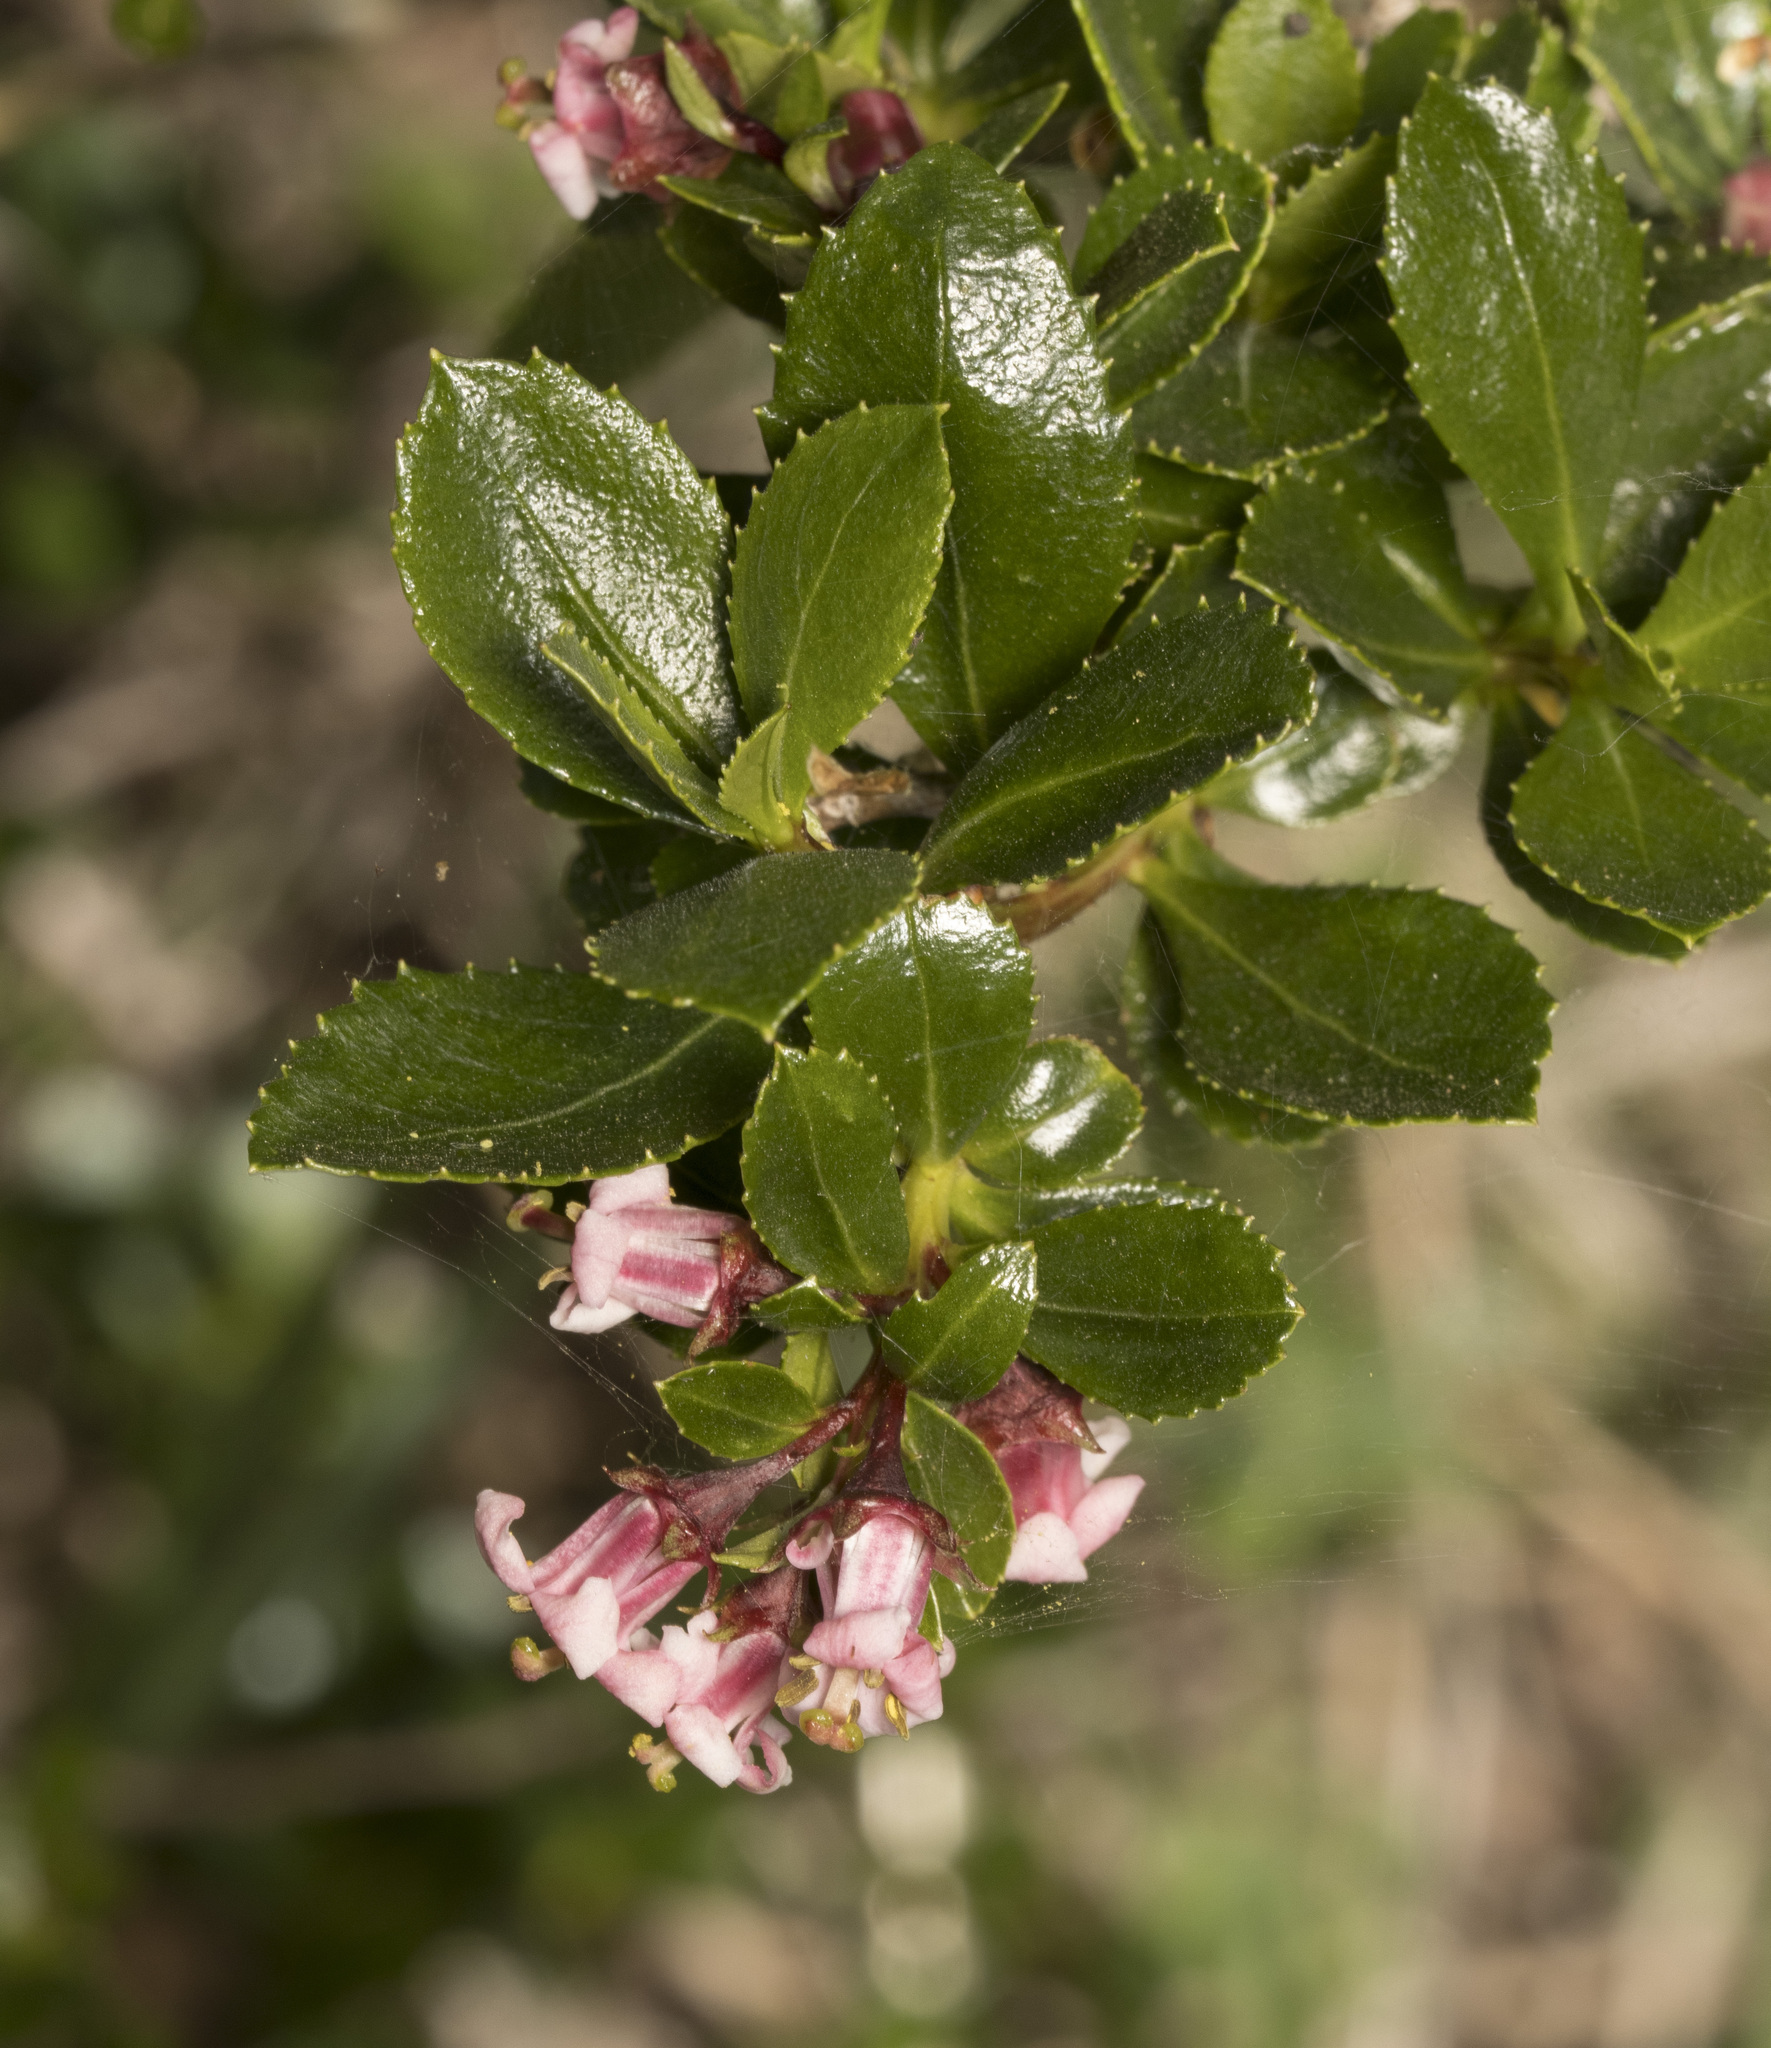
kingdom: Plantae
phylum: Tracheophyta
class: Magnoliopsida
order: Escalloniales
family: Escalloniaceae
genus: Escallonia
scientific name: Escallonia alpina
